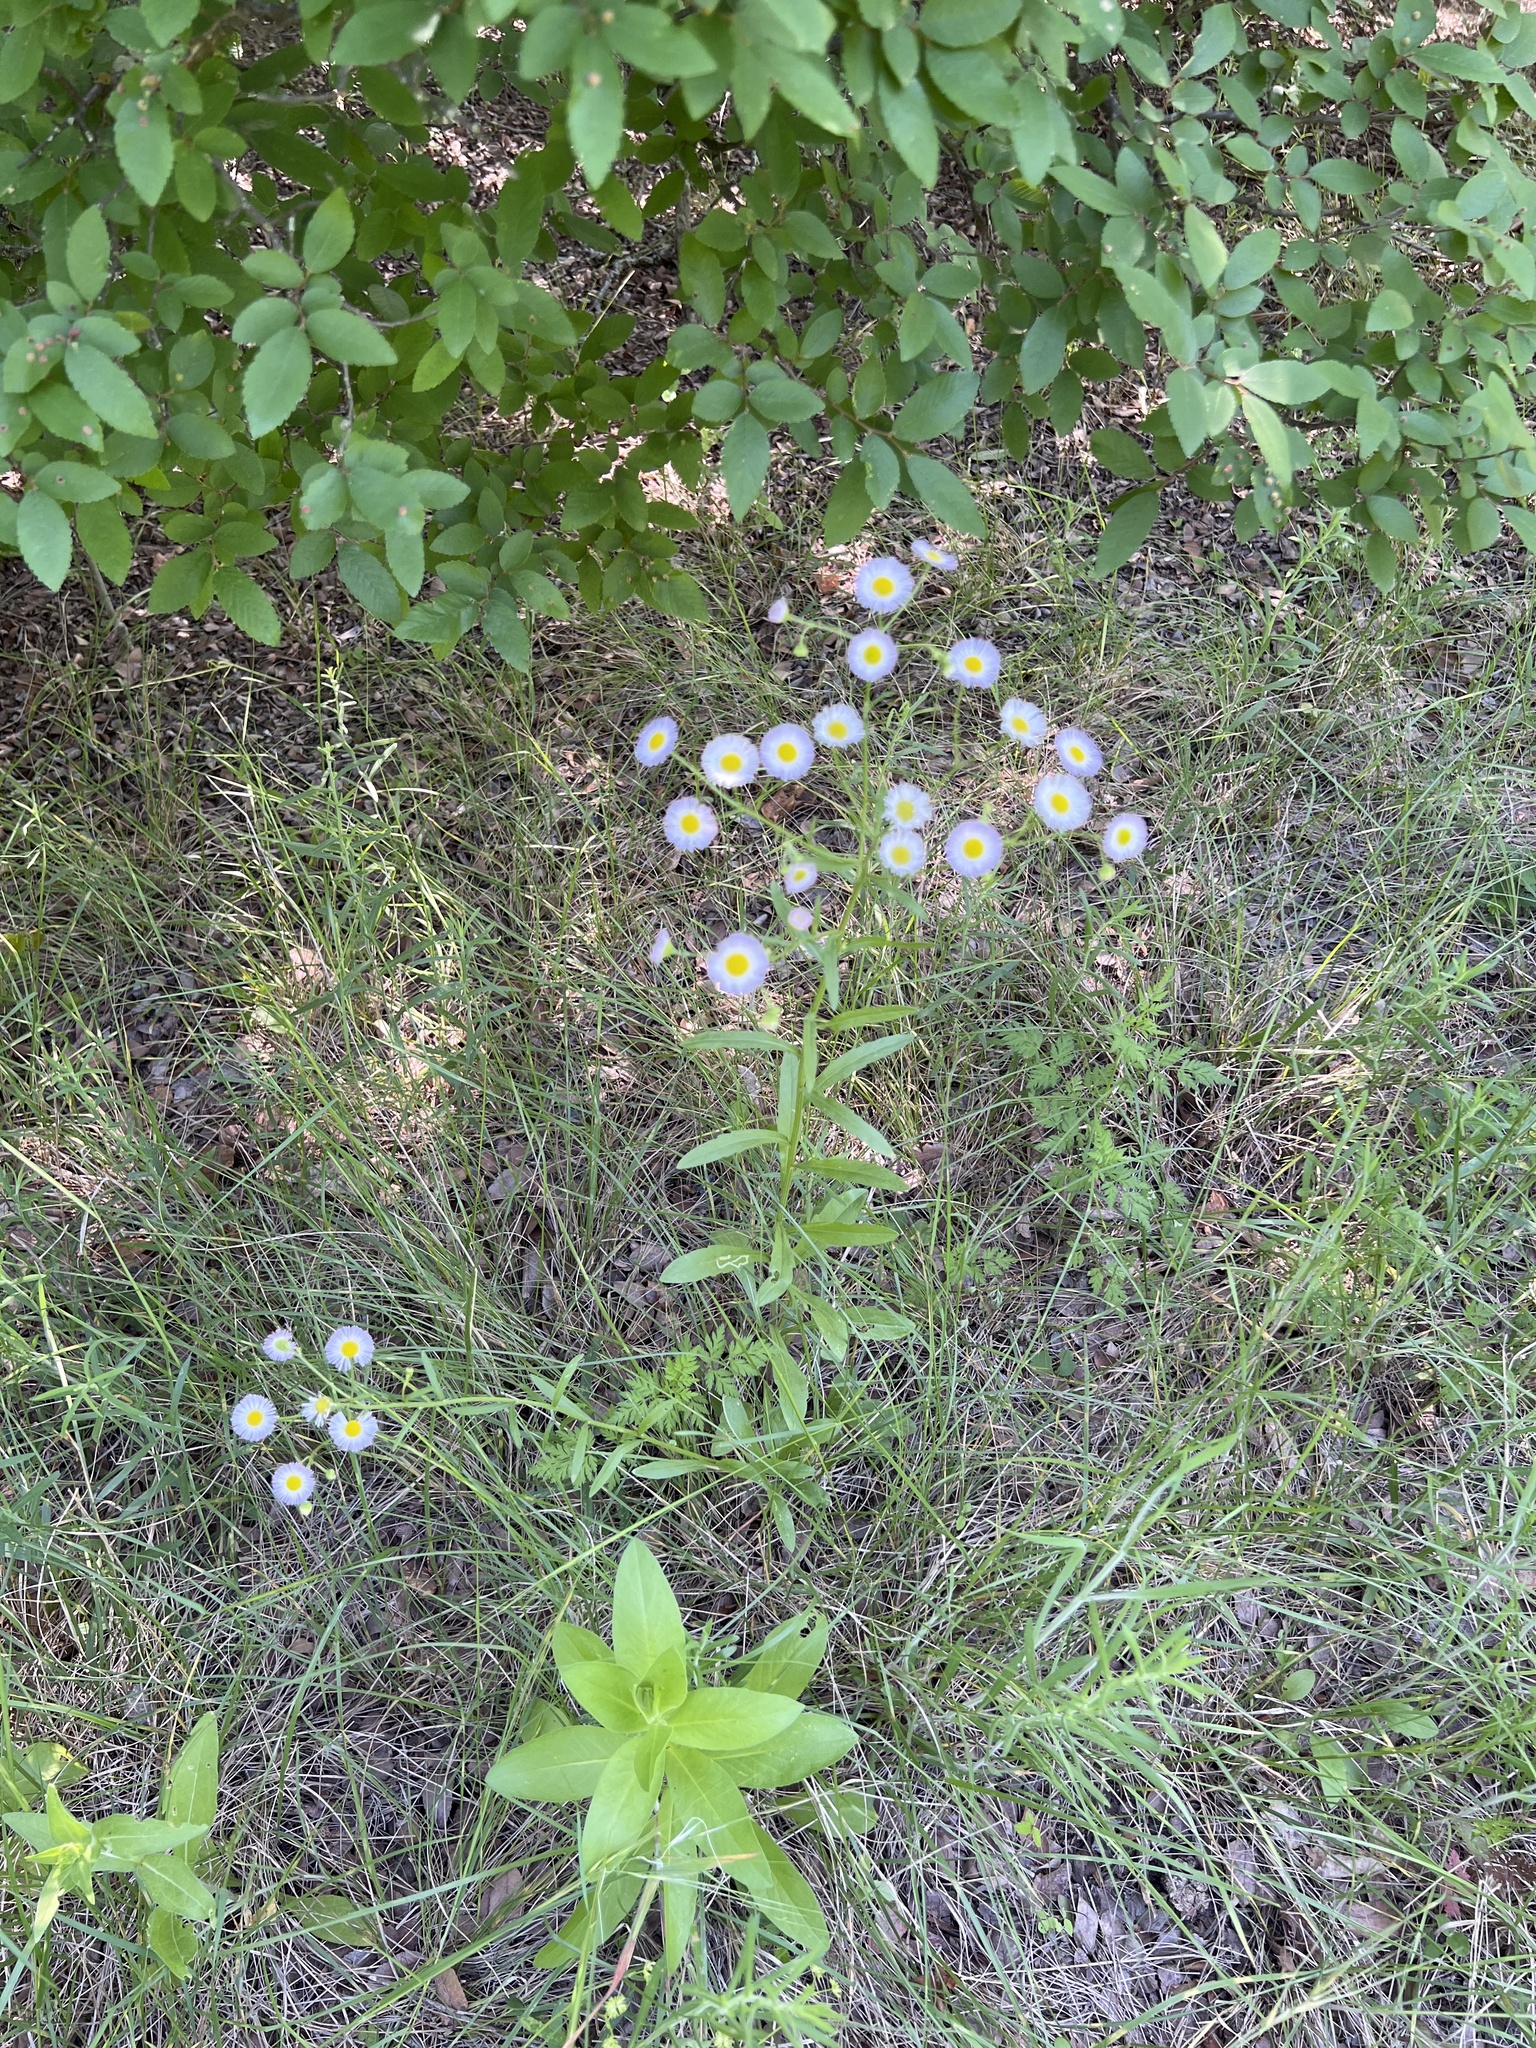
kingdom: Plantae
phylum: Tracheophyta
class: Magnoliopsida
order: Asterales
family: Asteraceae
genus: Erigeron
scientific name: Erigeron strigosus
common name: Common eastern fleabane
